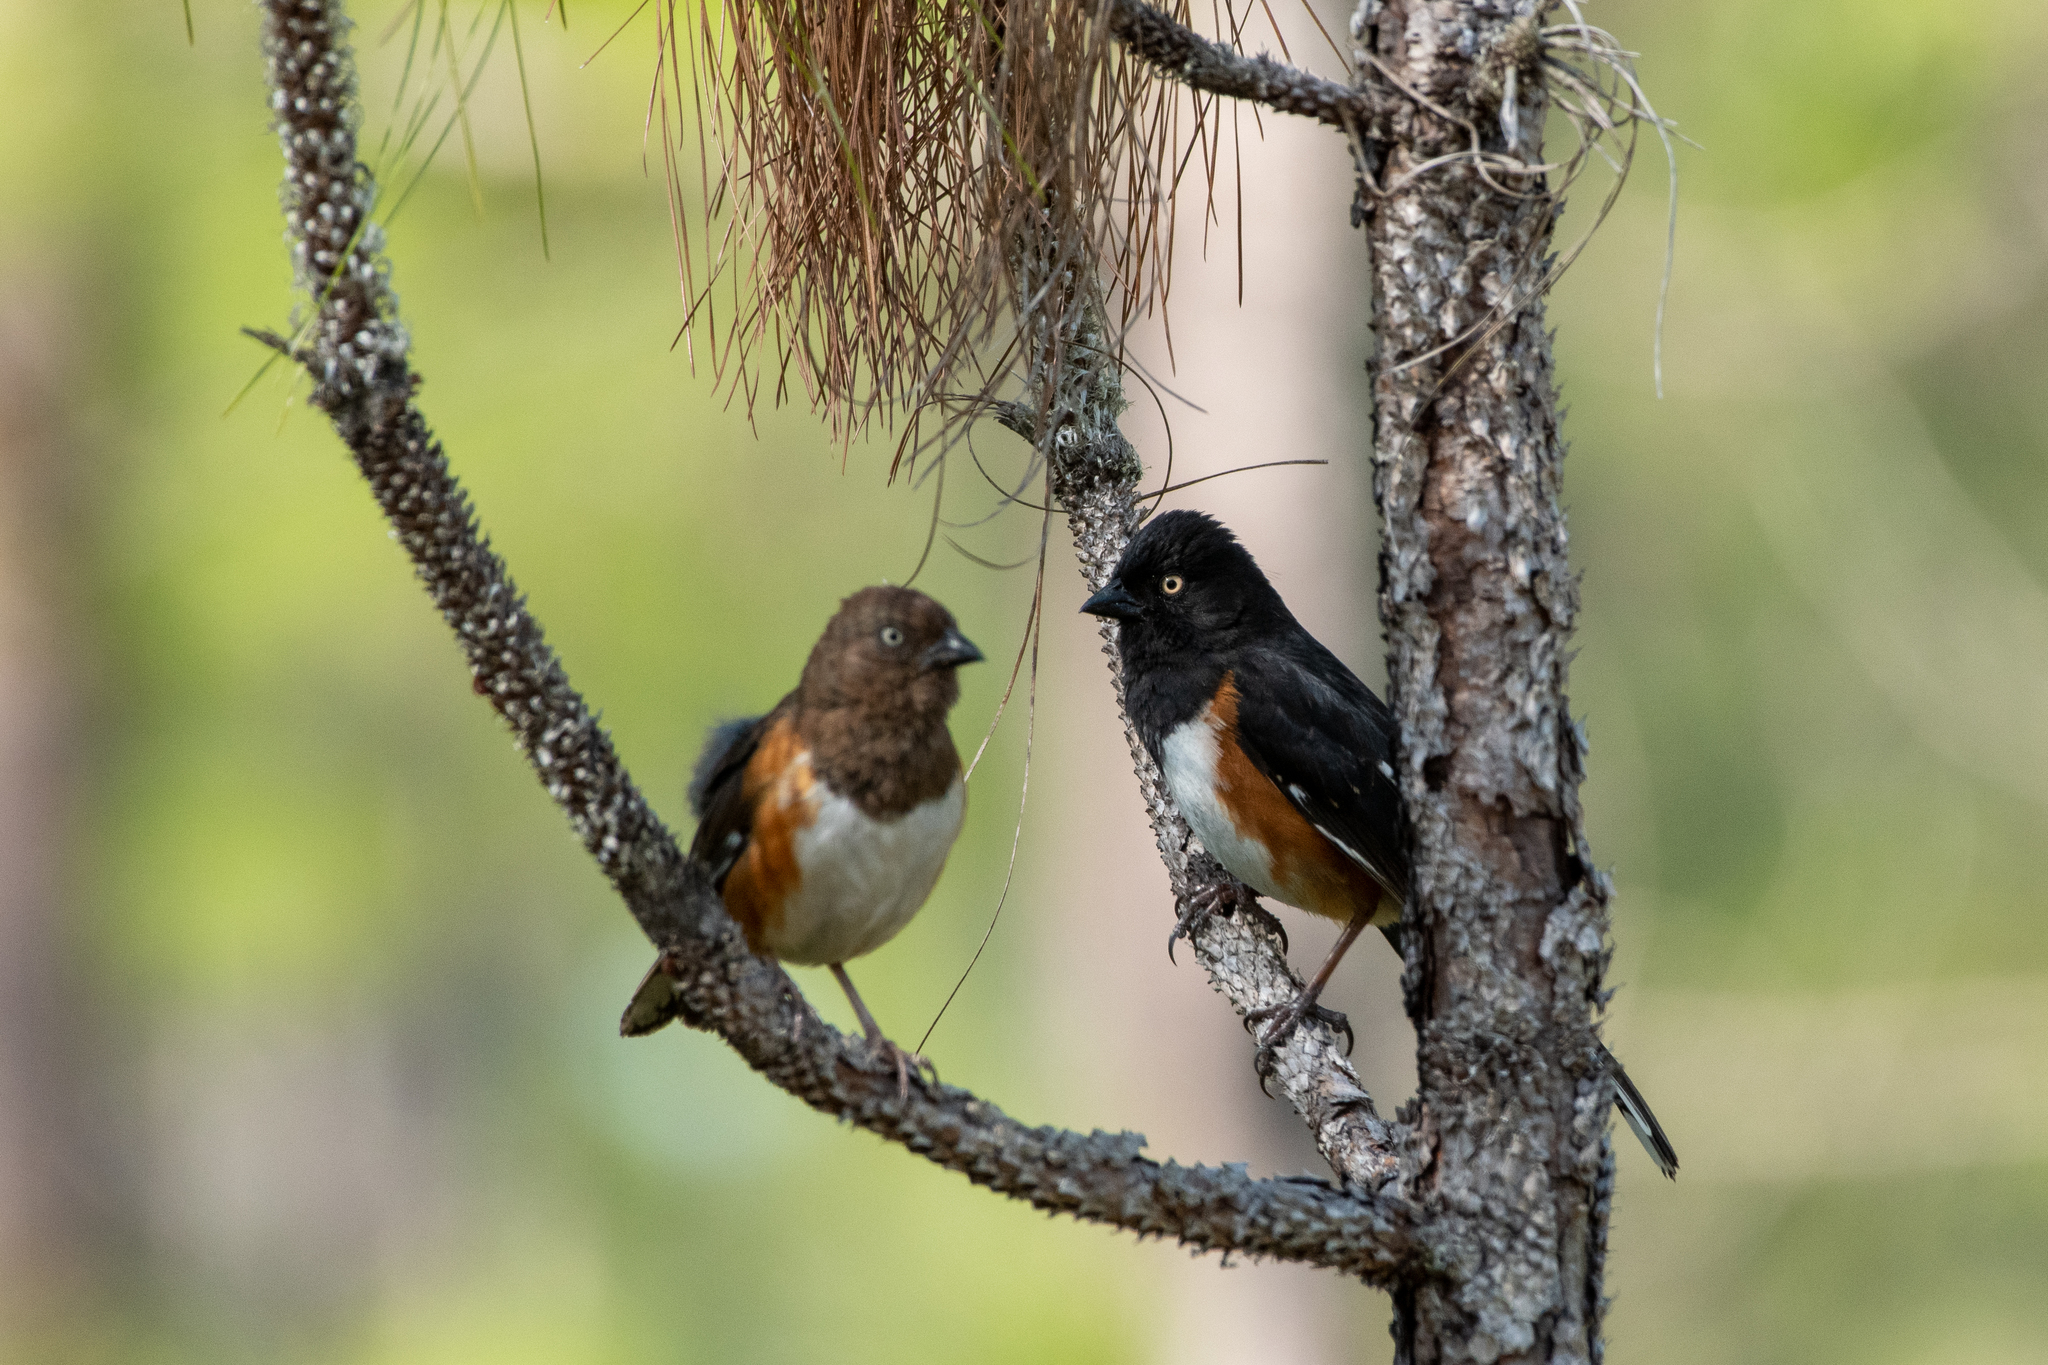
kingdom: Animalia
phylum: Chordata
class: Aves
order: Passeriformes
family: Passerellidae
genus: Pipilo
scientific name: Pipilo erythrophthalmus
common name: Eastern towhee
